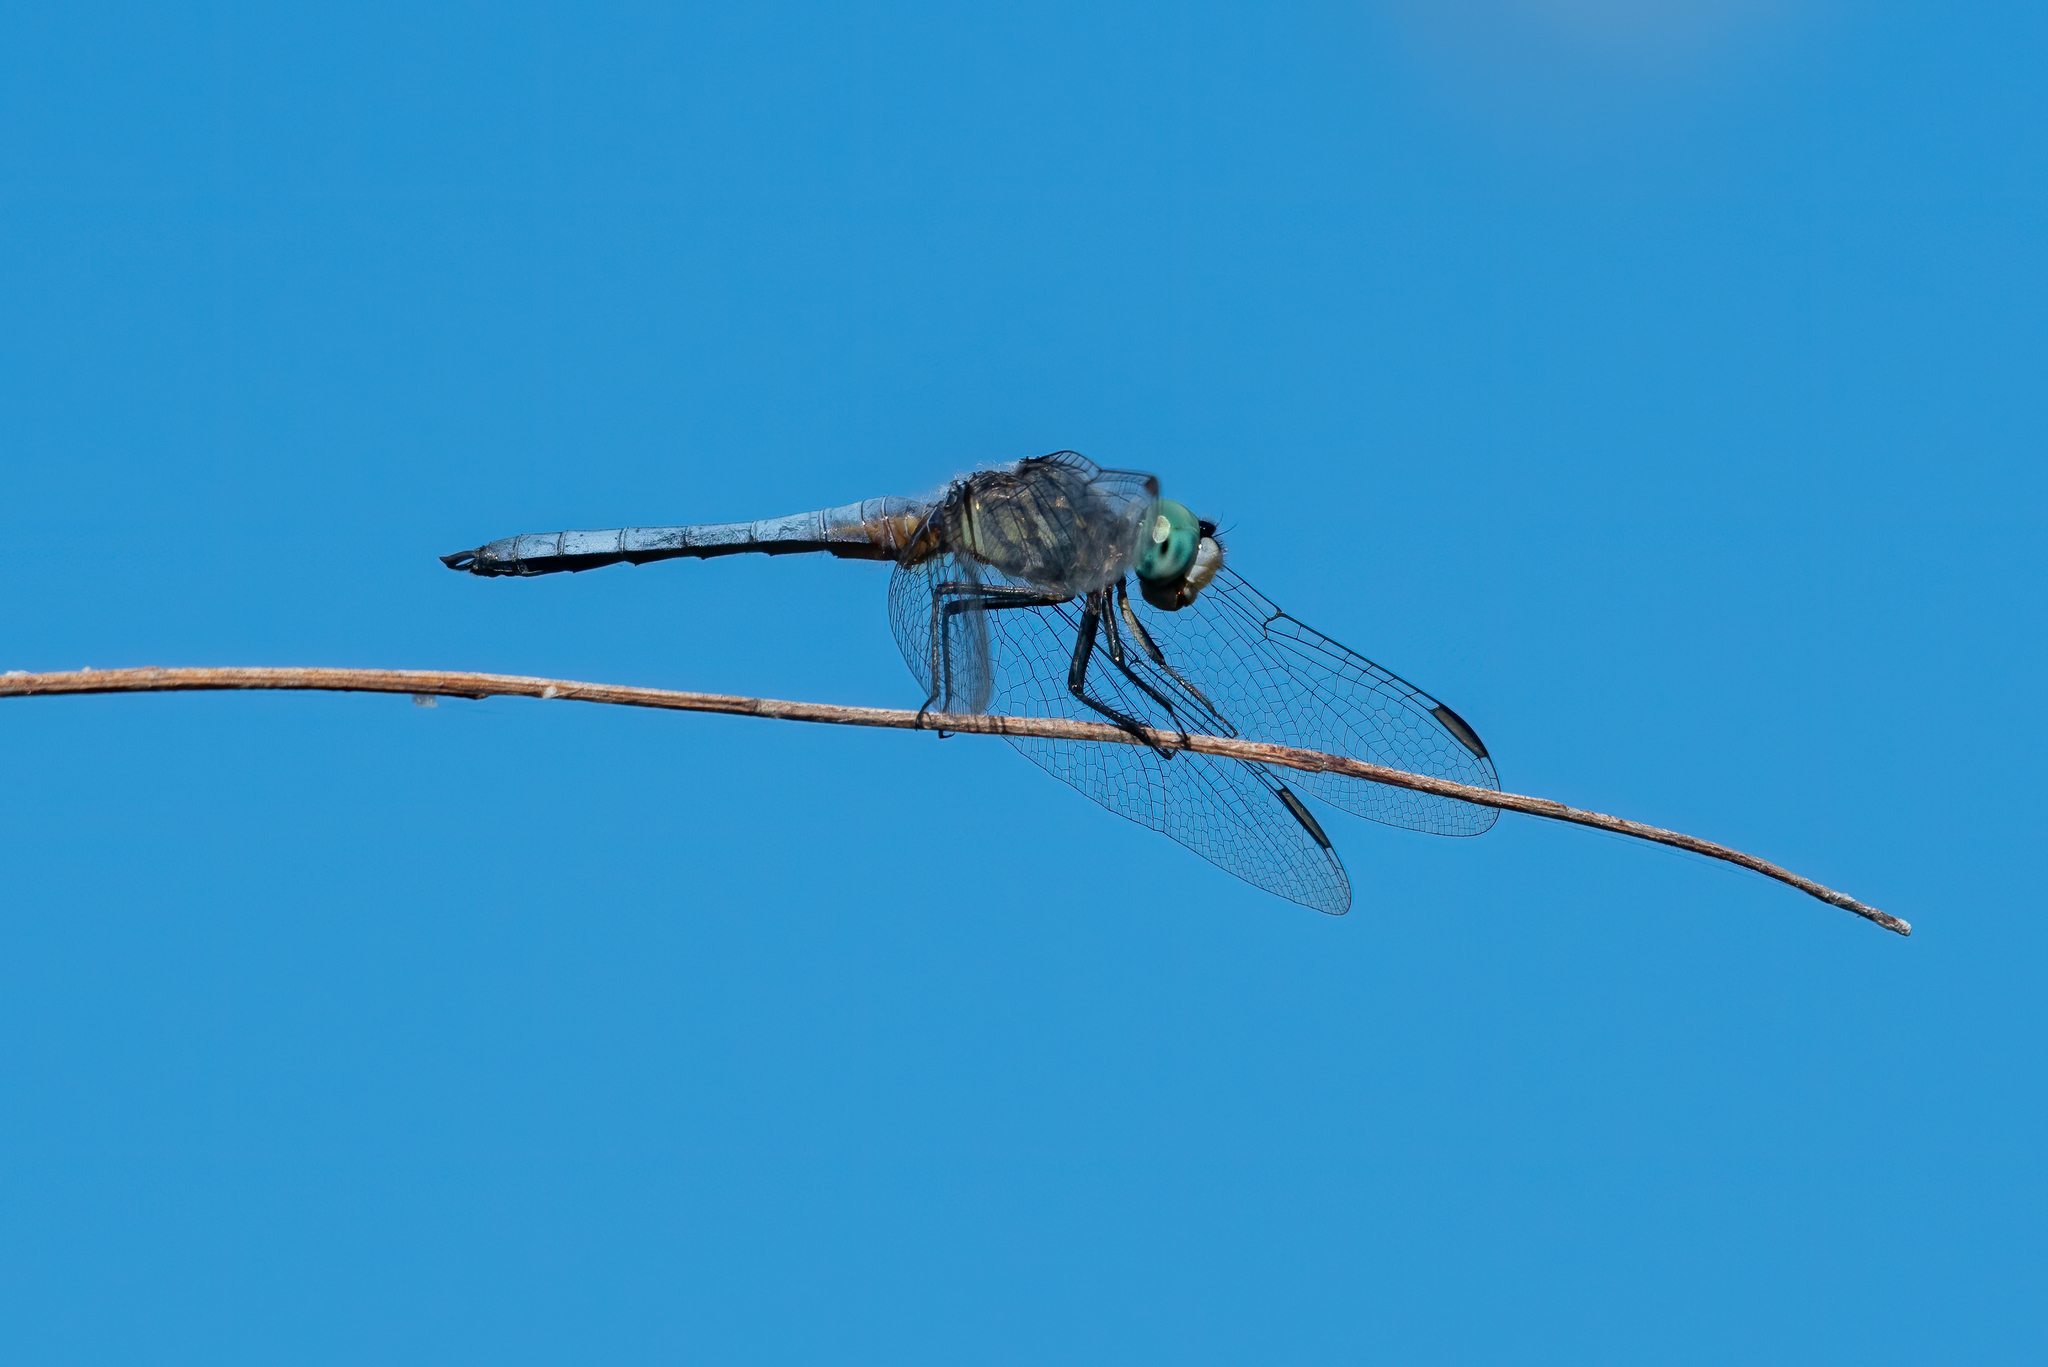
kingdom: Animalia
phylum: Arthropoda
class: Insecta
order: Odonata
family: Libellulidae
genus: Pachydiplax
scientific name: Pachydiplax longipennis
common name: Blue dasher
